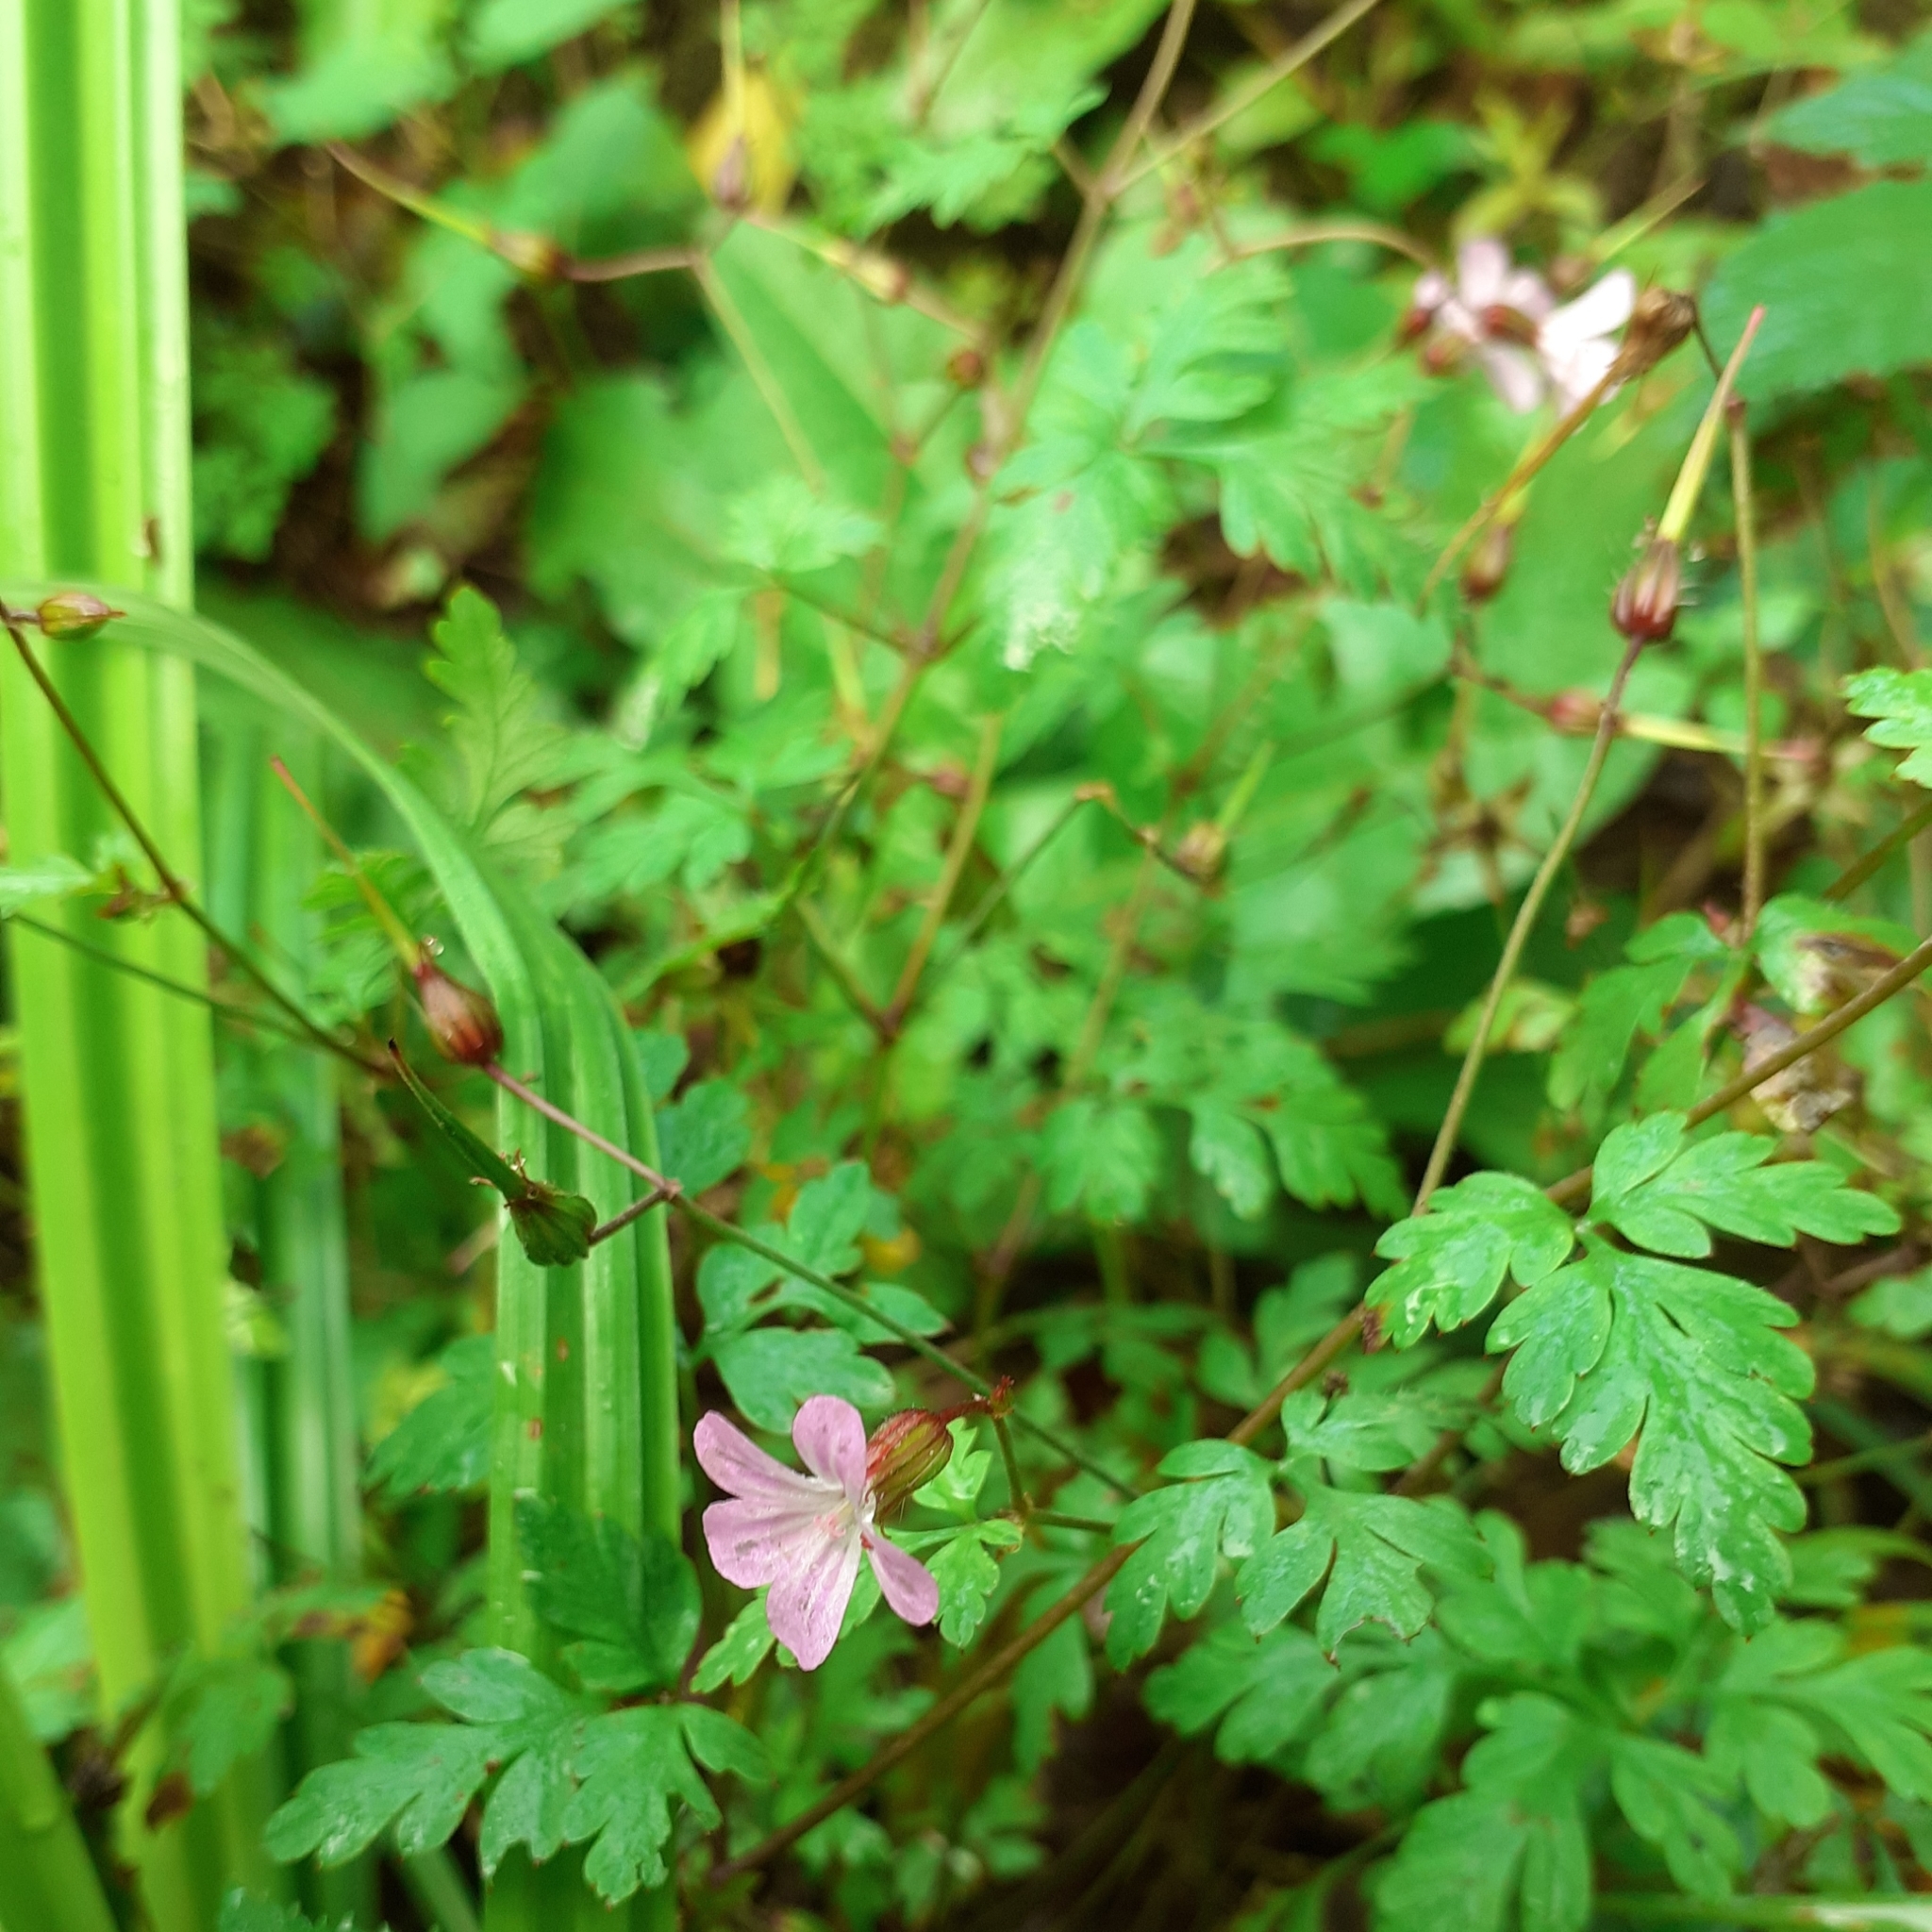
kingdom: Plantae
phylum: Tracheophyta
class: Magnoliopsida
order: Geraniales
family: Geraniaceae
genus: Geranium
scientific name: Geranium robertianum
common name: Herb-robert
